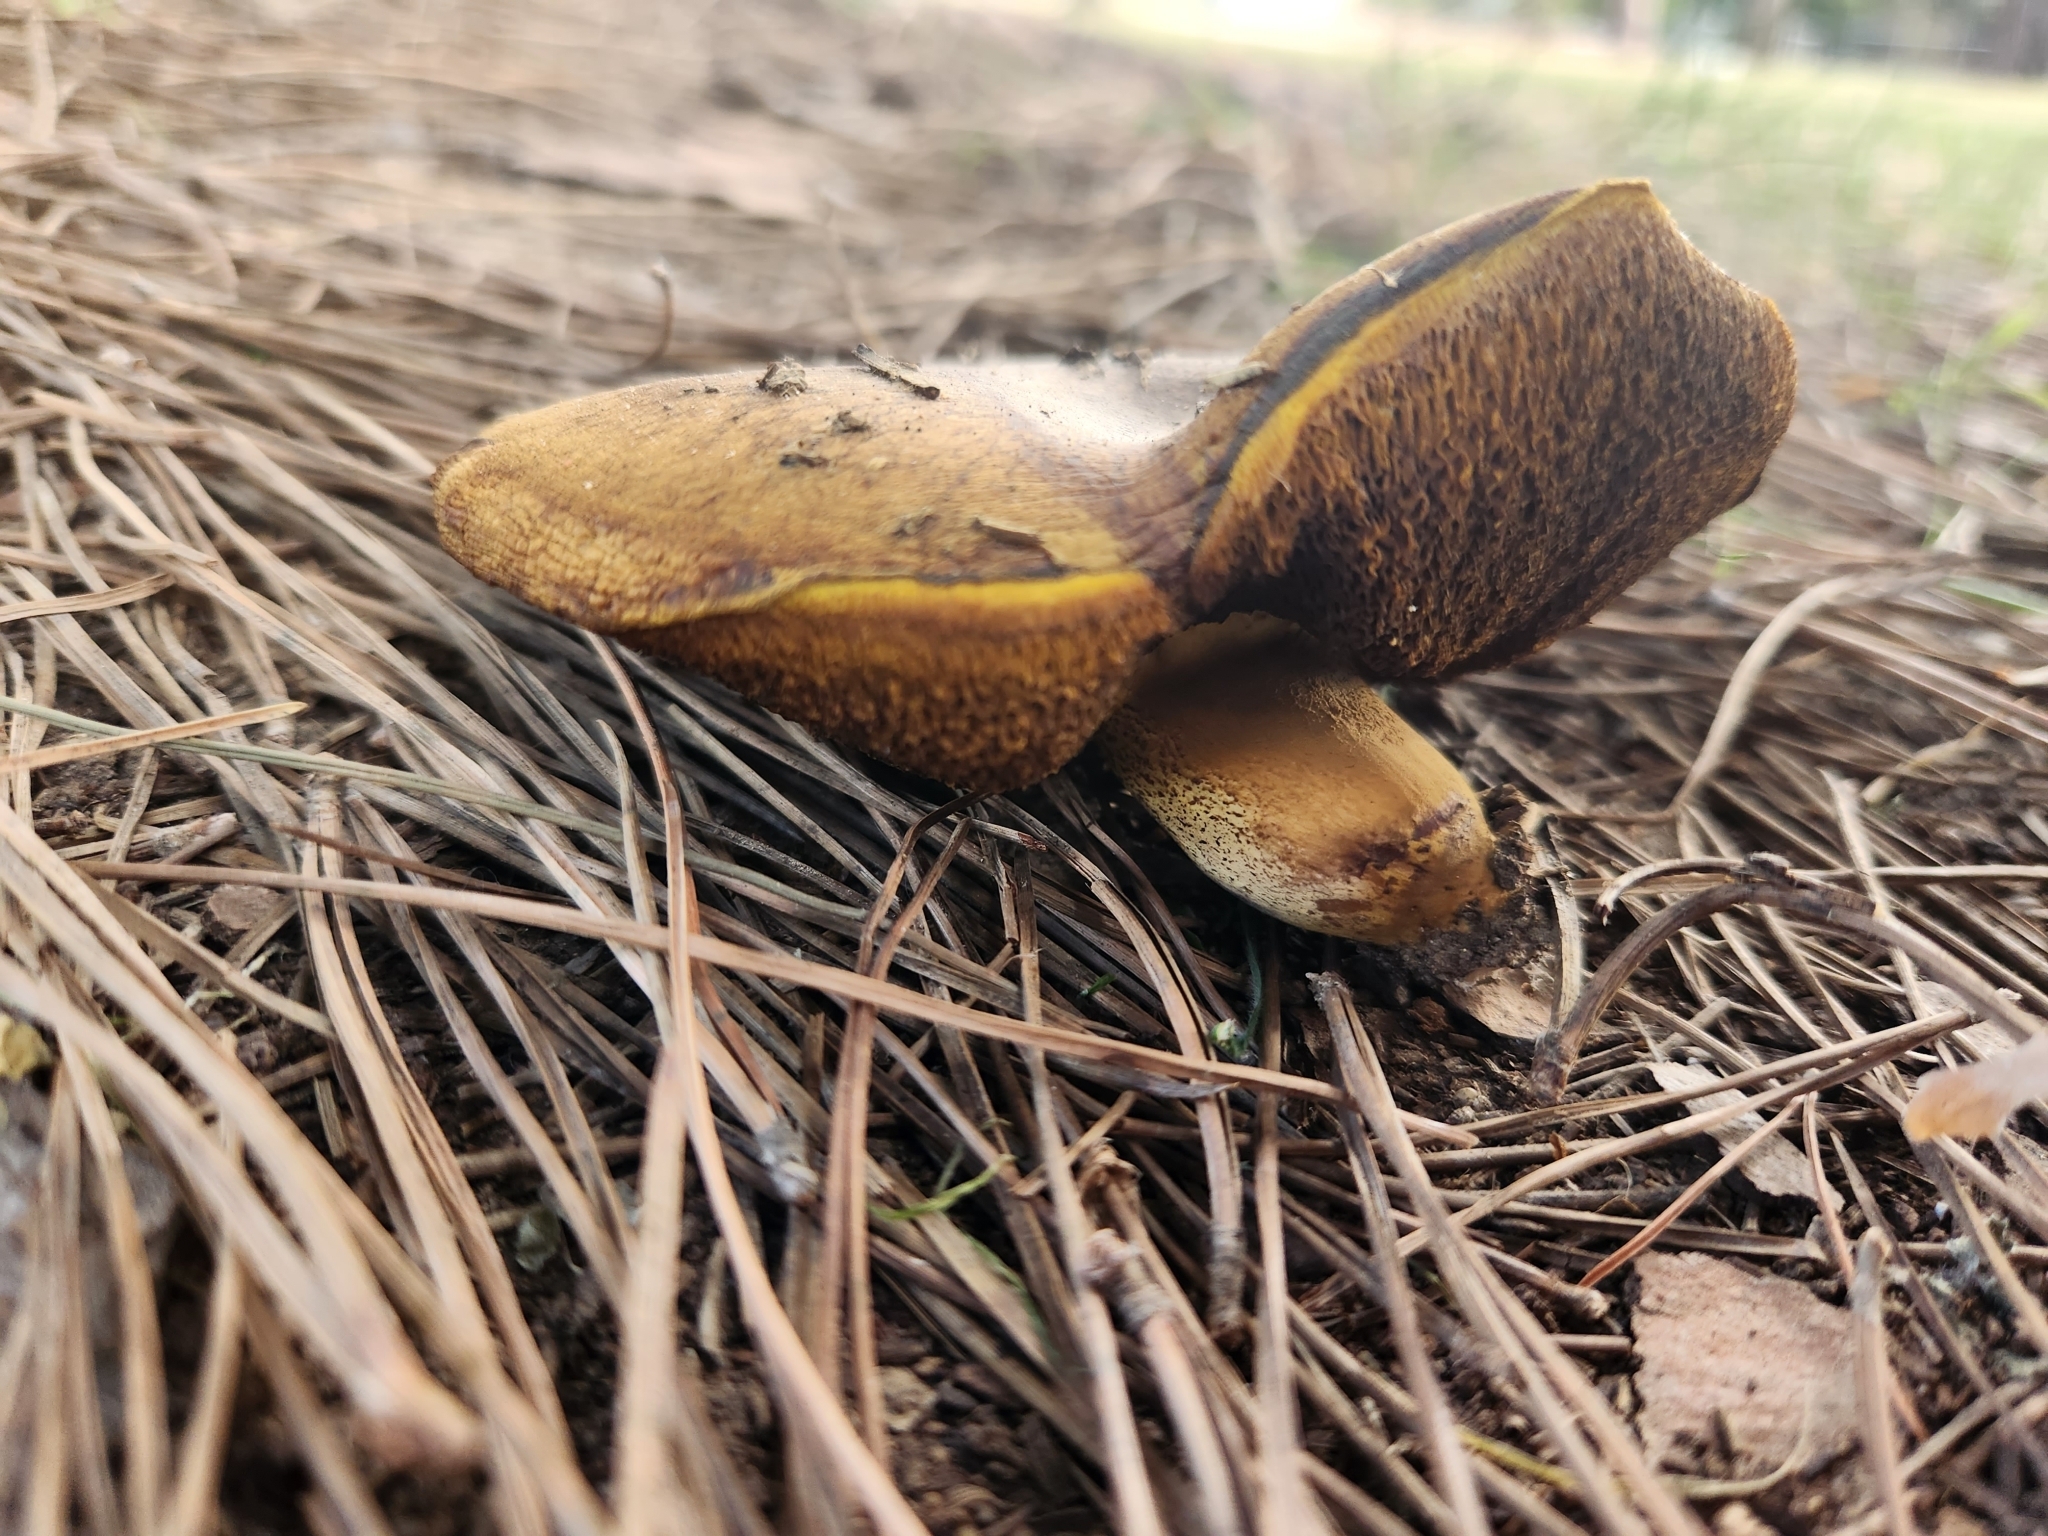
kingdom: Fungi
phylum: Basidiomycota
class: Agaricomycetes
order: Boletales
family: Suillaceae
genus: Suillus
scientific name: Suillus collinitus
